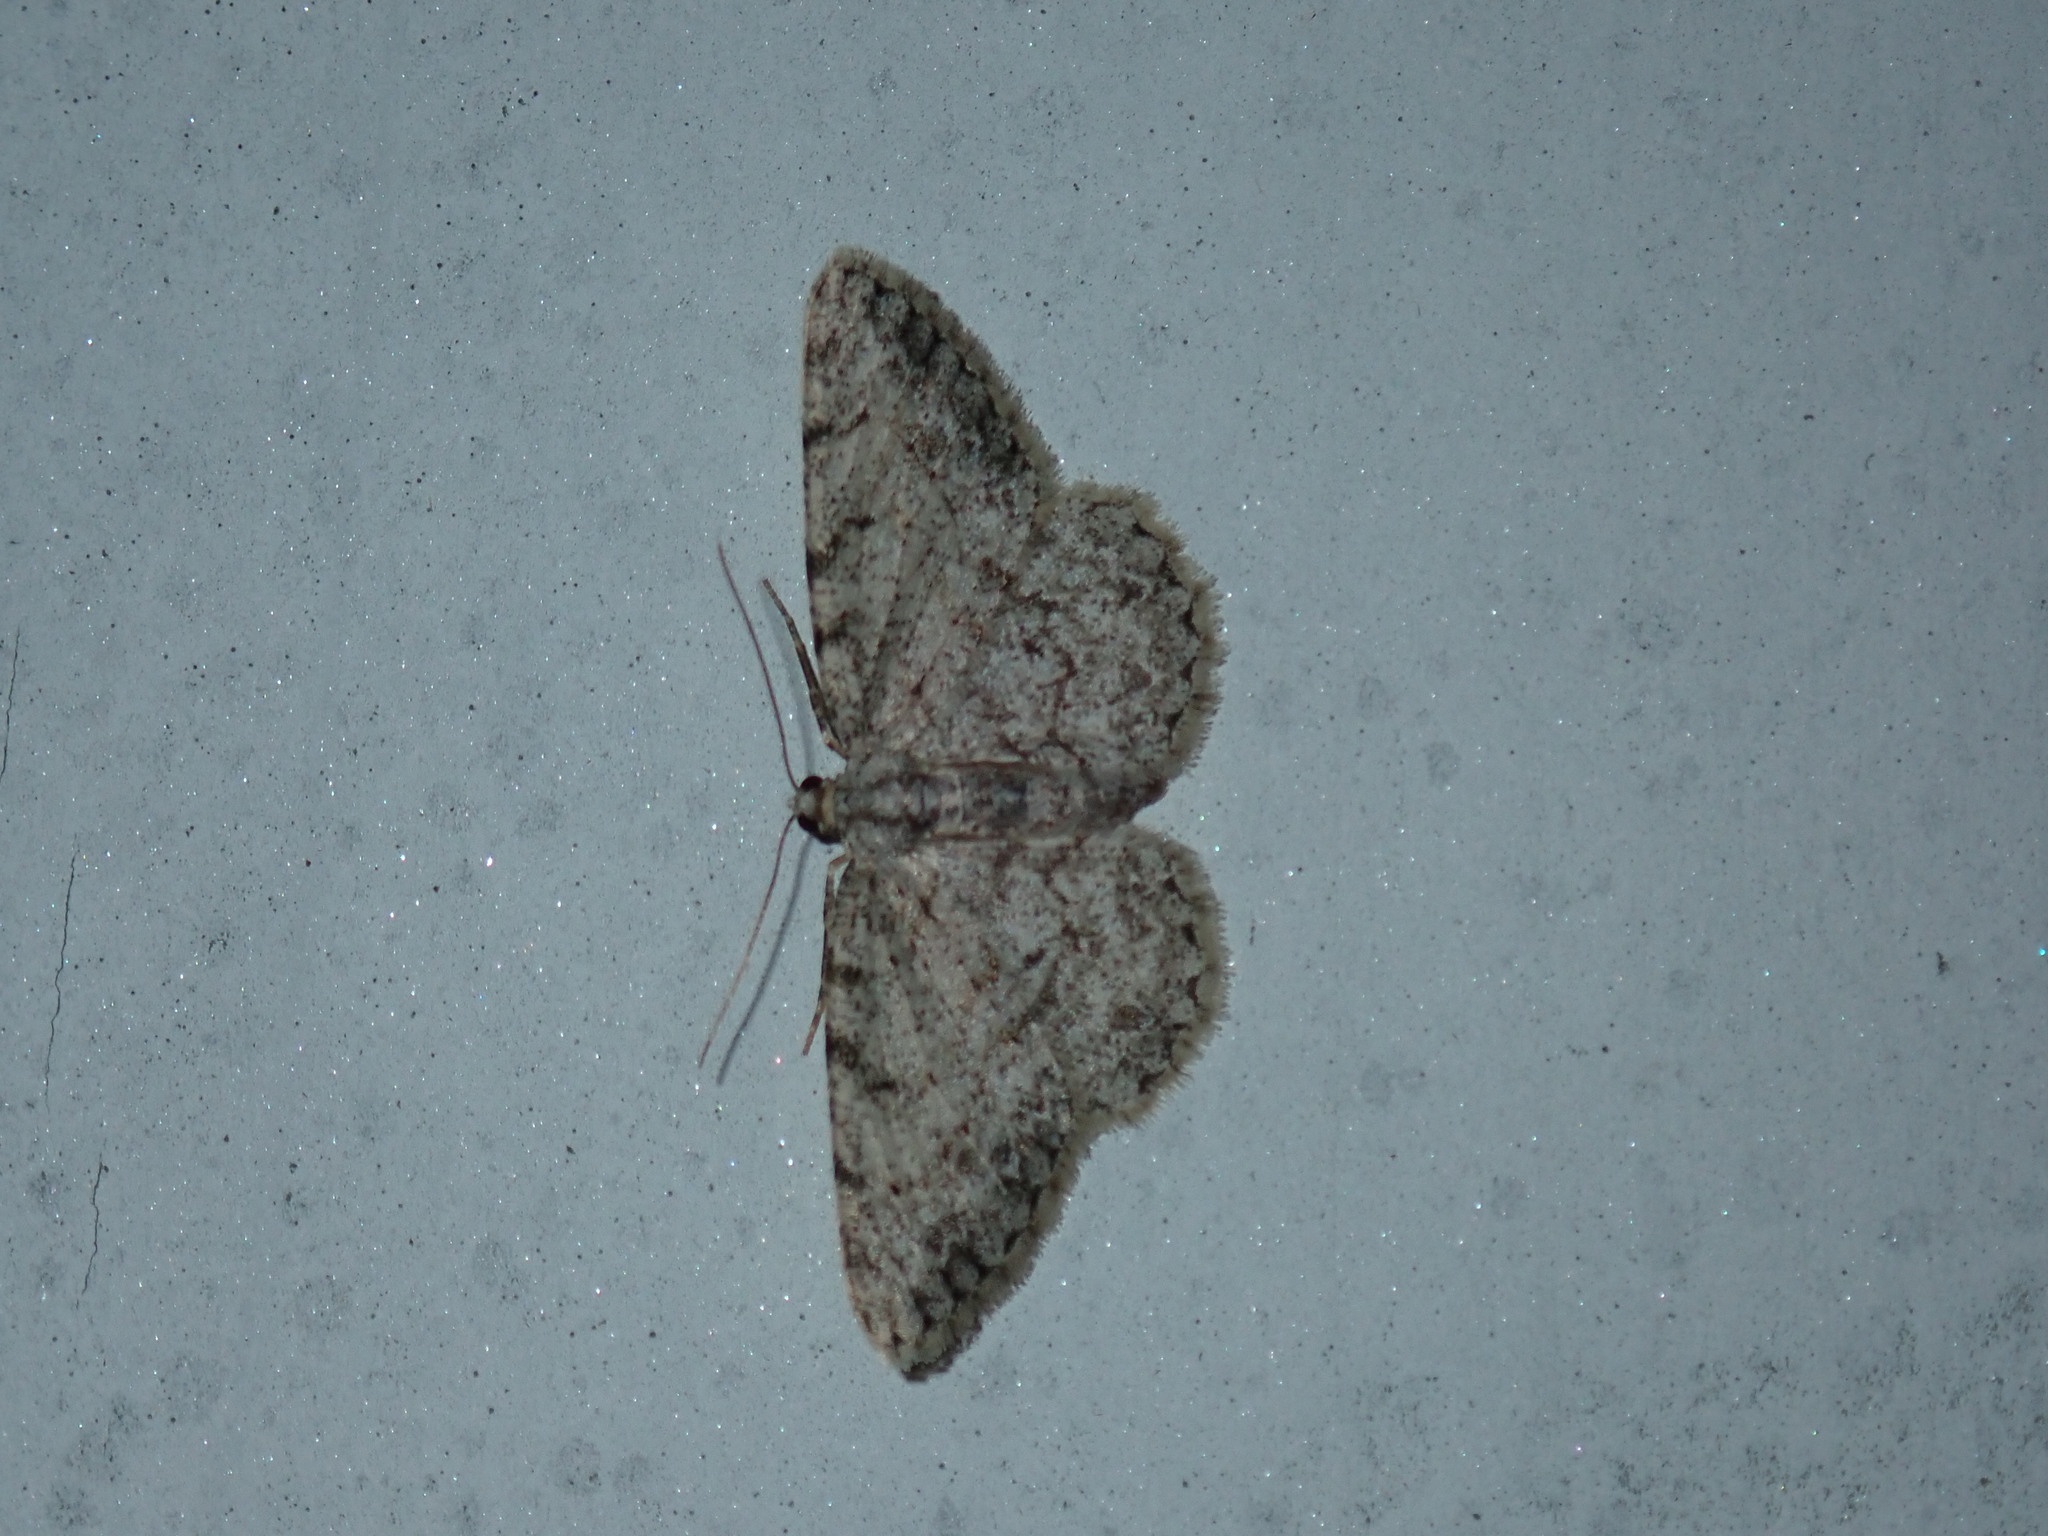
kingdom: Animalia
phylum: Arthropoda
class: Insecta
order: Lepidoptera
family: Geometridae
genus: Protoboarmia
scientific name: Protoboarmia porcelaria
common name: Porcelain gray
